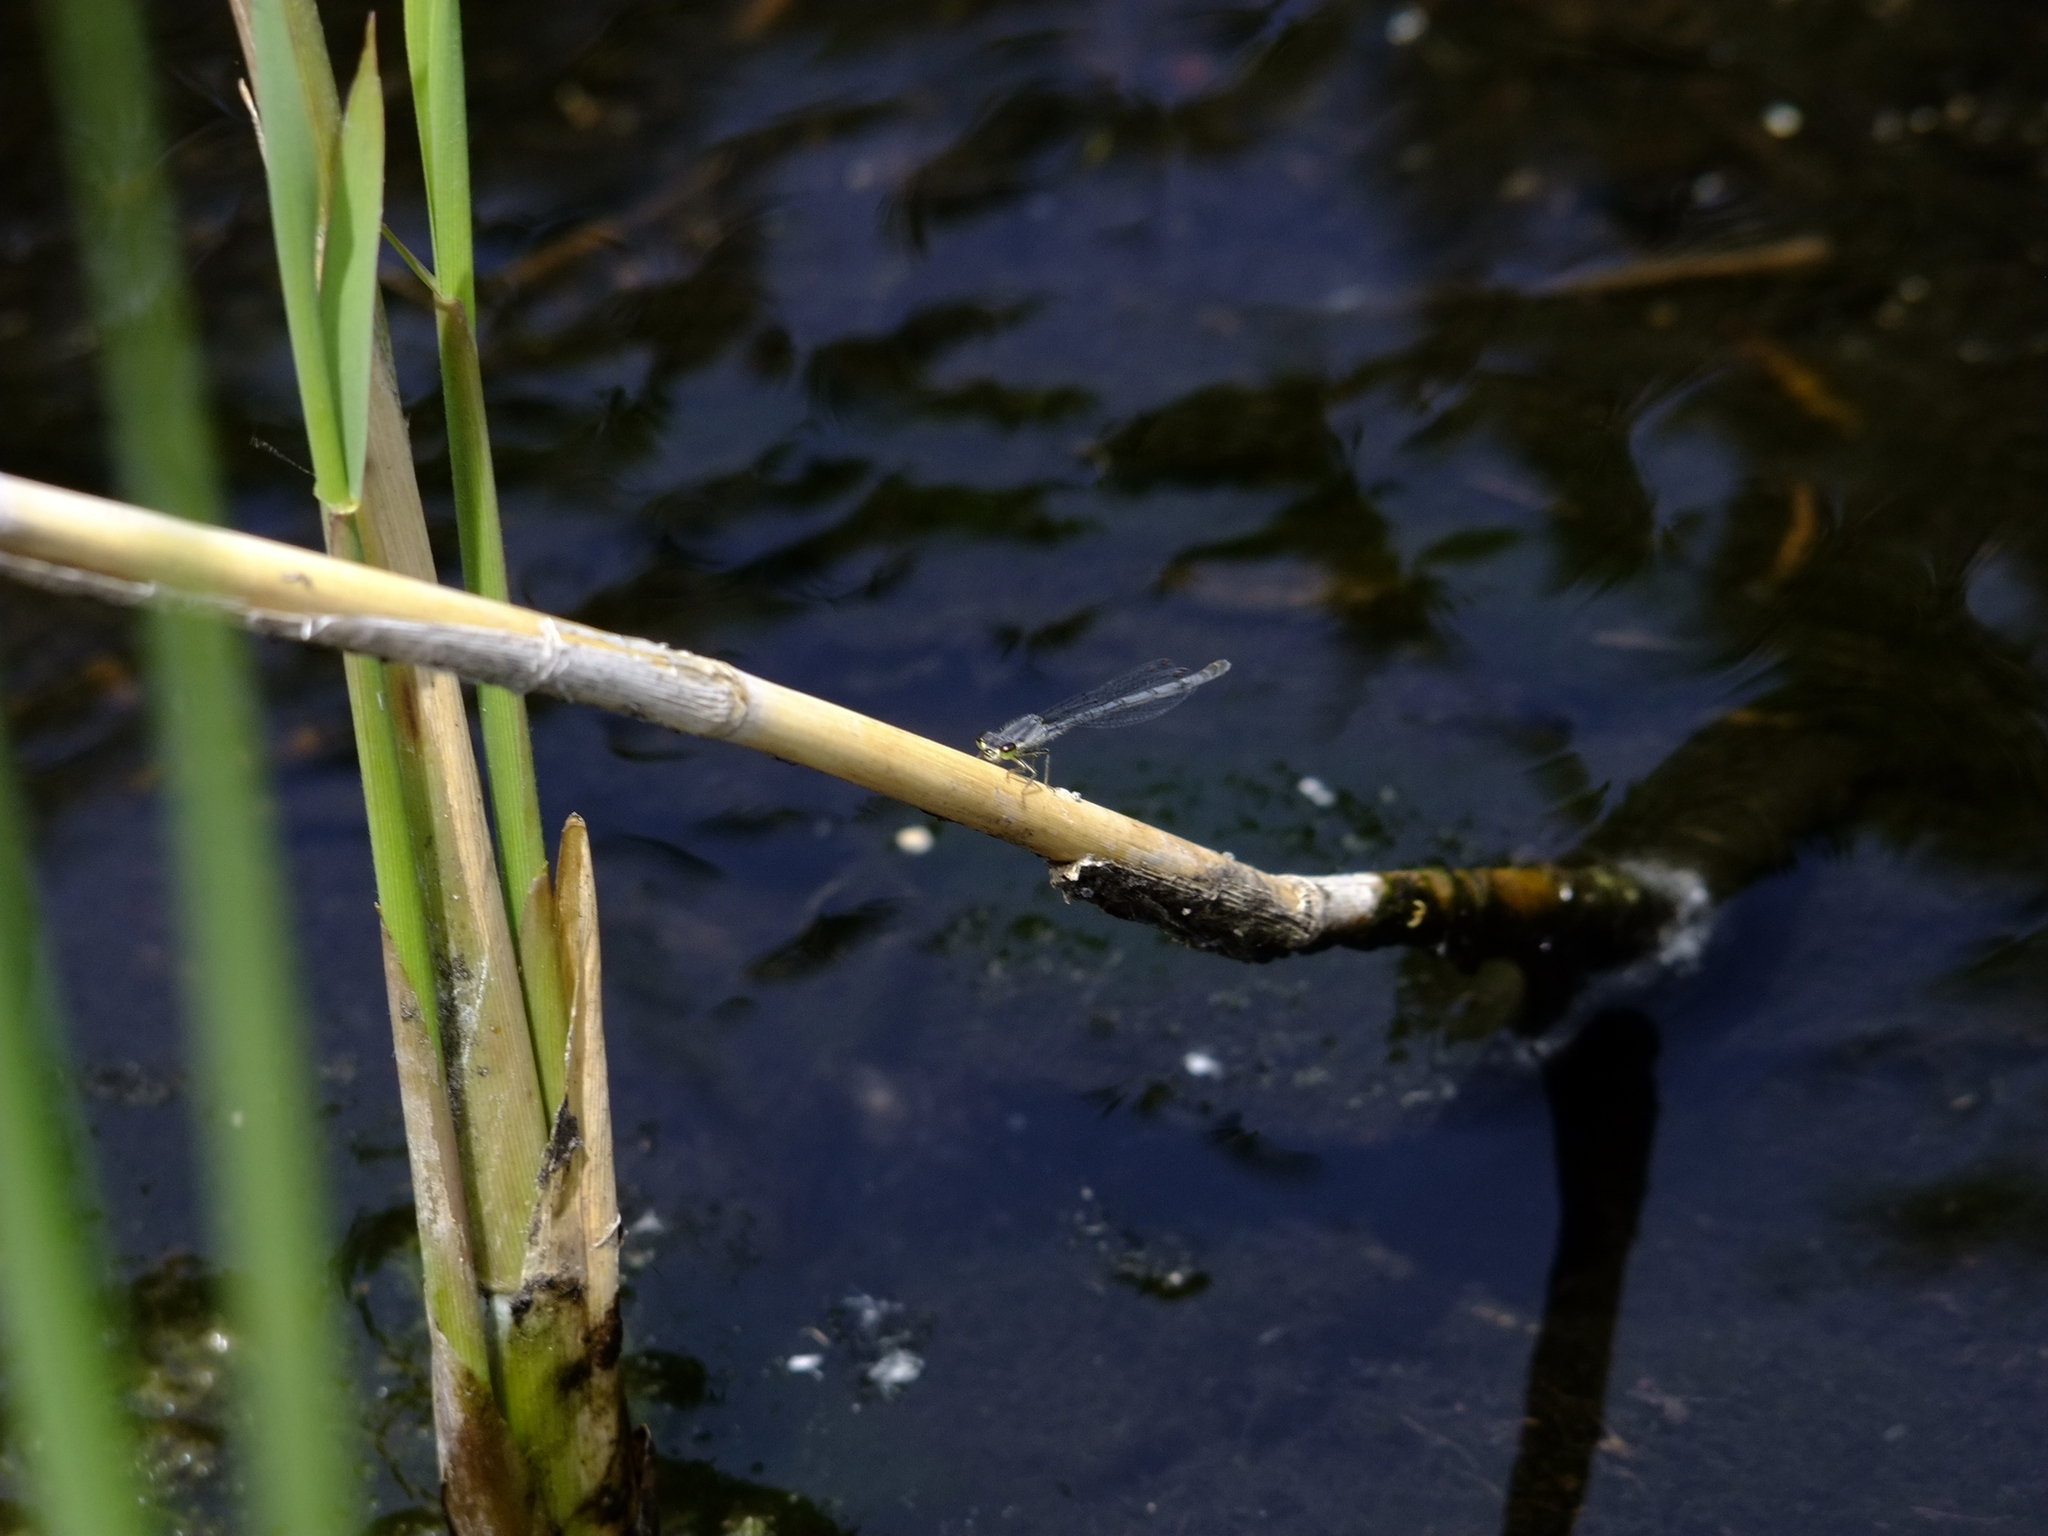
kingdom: Animalia
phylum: Arthropoda
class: Insecta
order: Odonata
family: Coenagrionidae
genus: Ischnura
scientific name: Ischnura posita
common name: Fragile forktail
